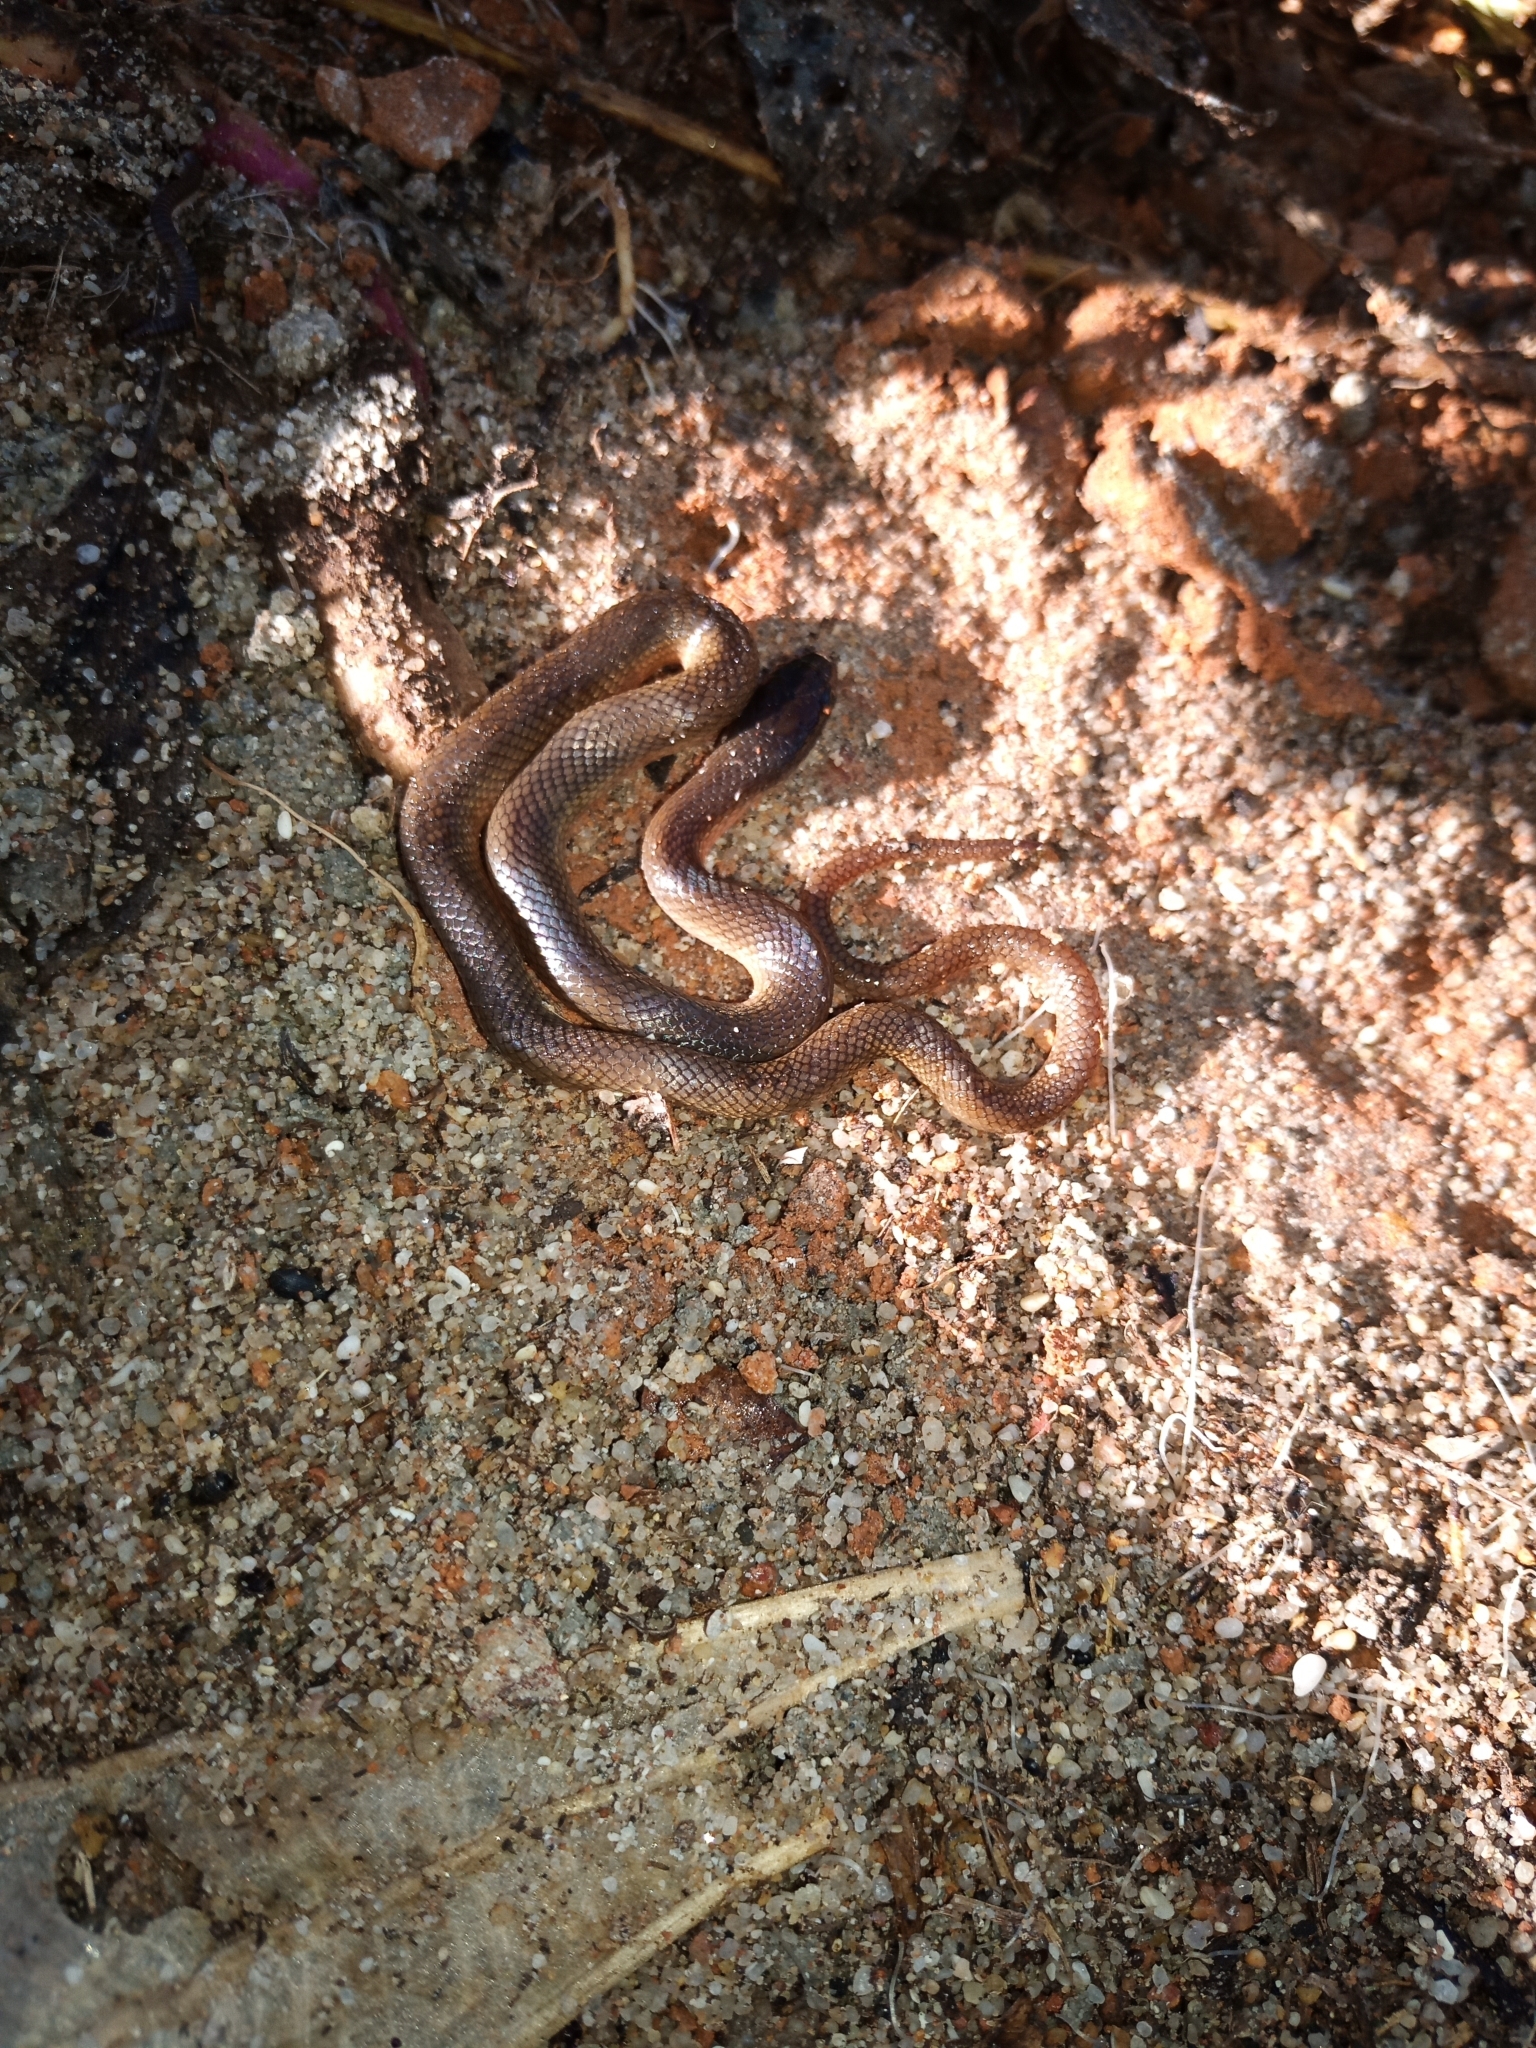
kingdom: Animalia
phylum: Chordata
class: Squamata
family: Lamprophiidae
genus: Lycodonomorphus
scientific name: Lycodonomorphus rufulus
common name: Brown water snake
